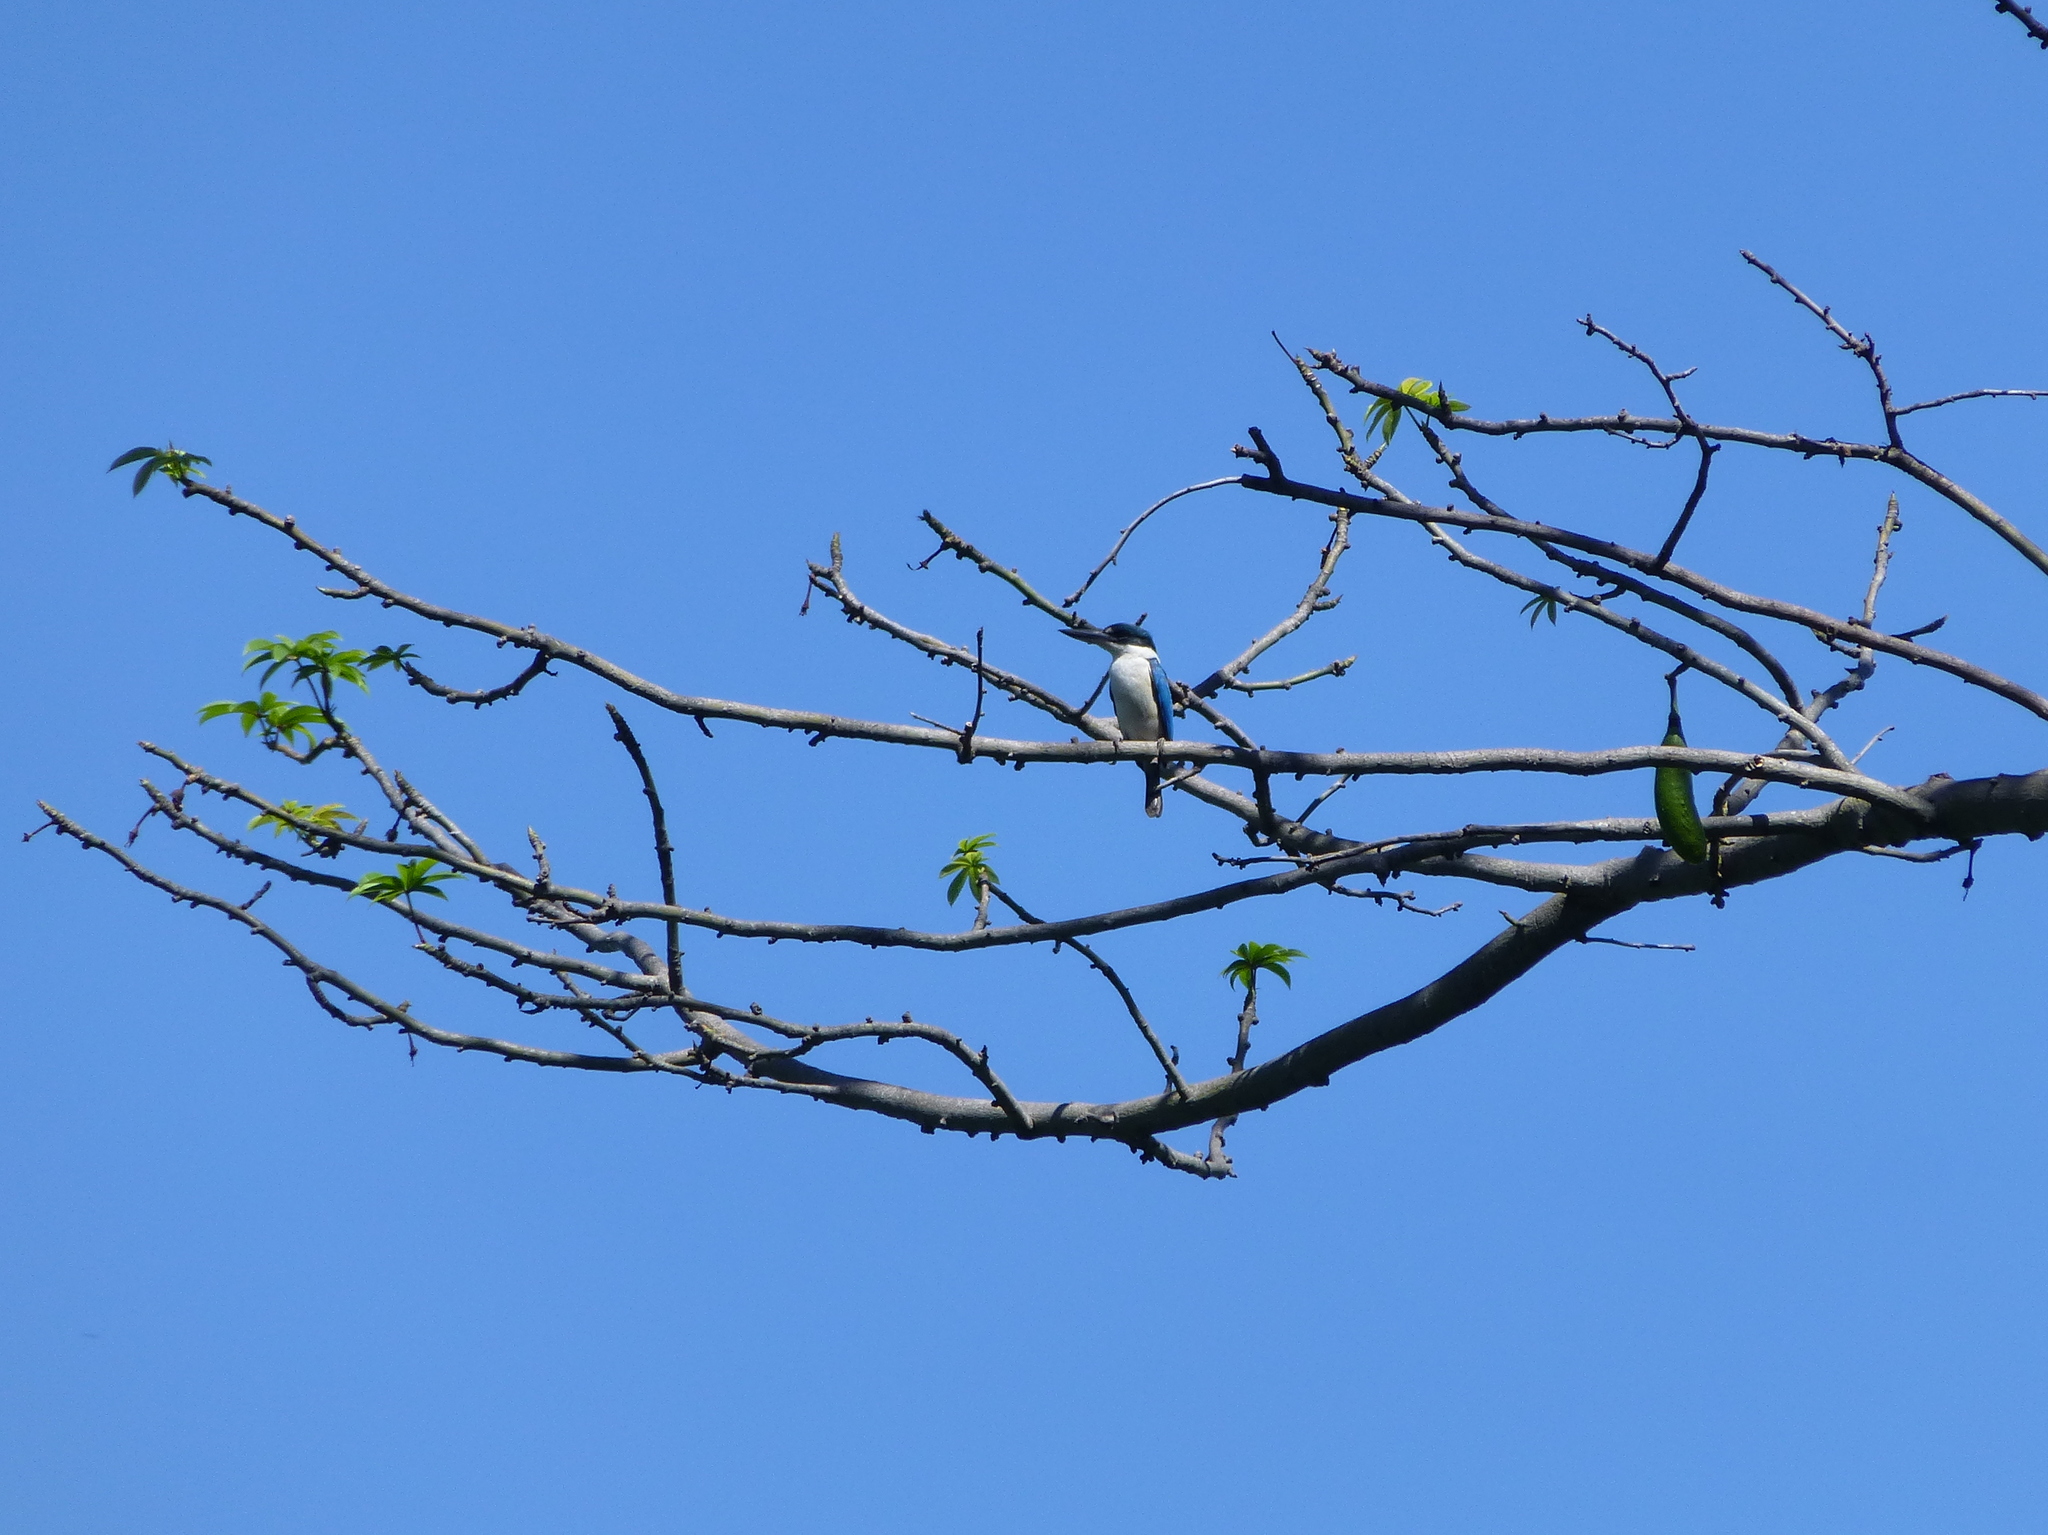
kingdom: Animalia
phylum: Chordata
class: Aves
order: Coraciiformes
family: Alcedinidae
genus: Todiramphus
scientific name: Todiramphus chloris
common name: Collared kingfisher
